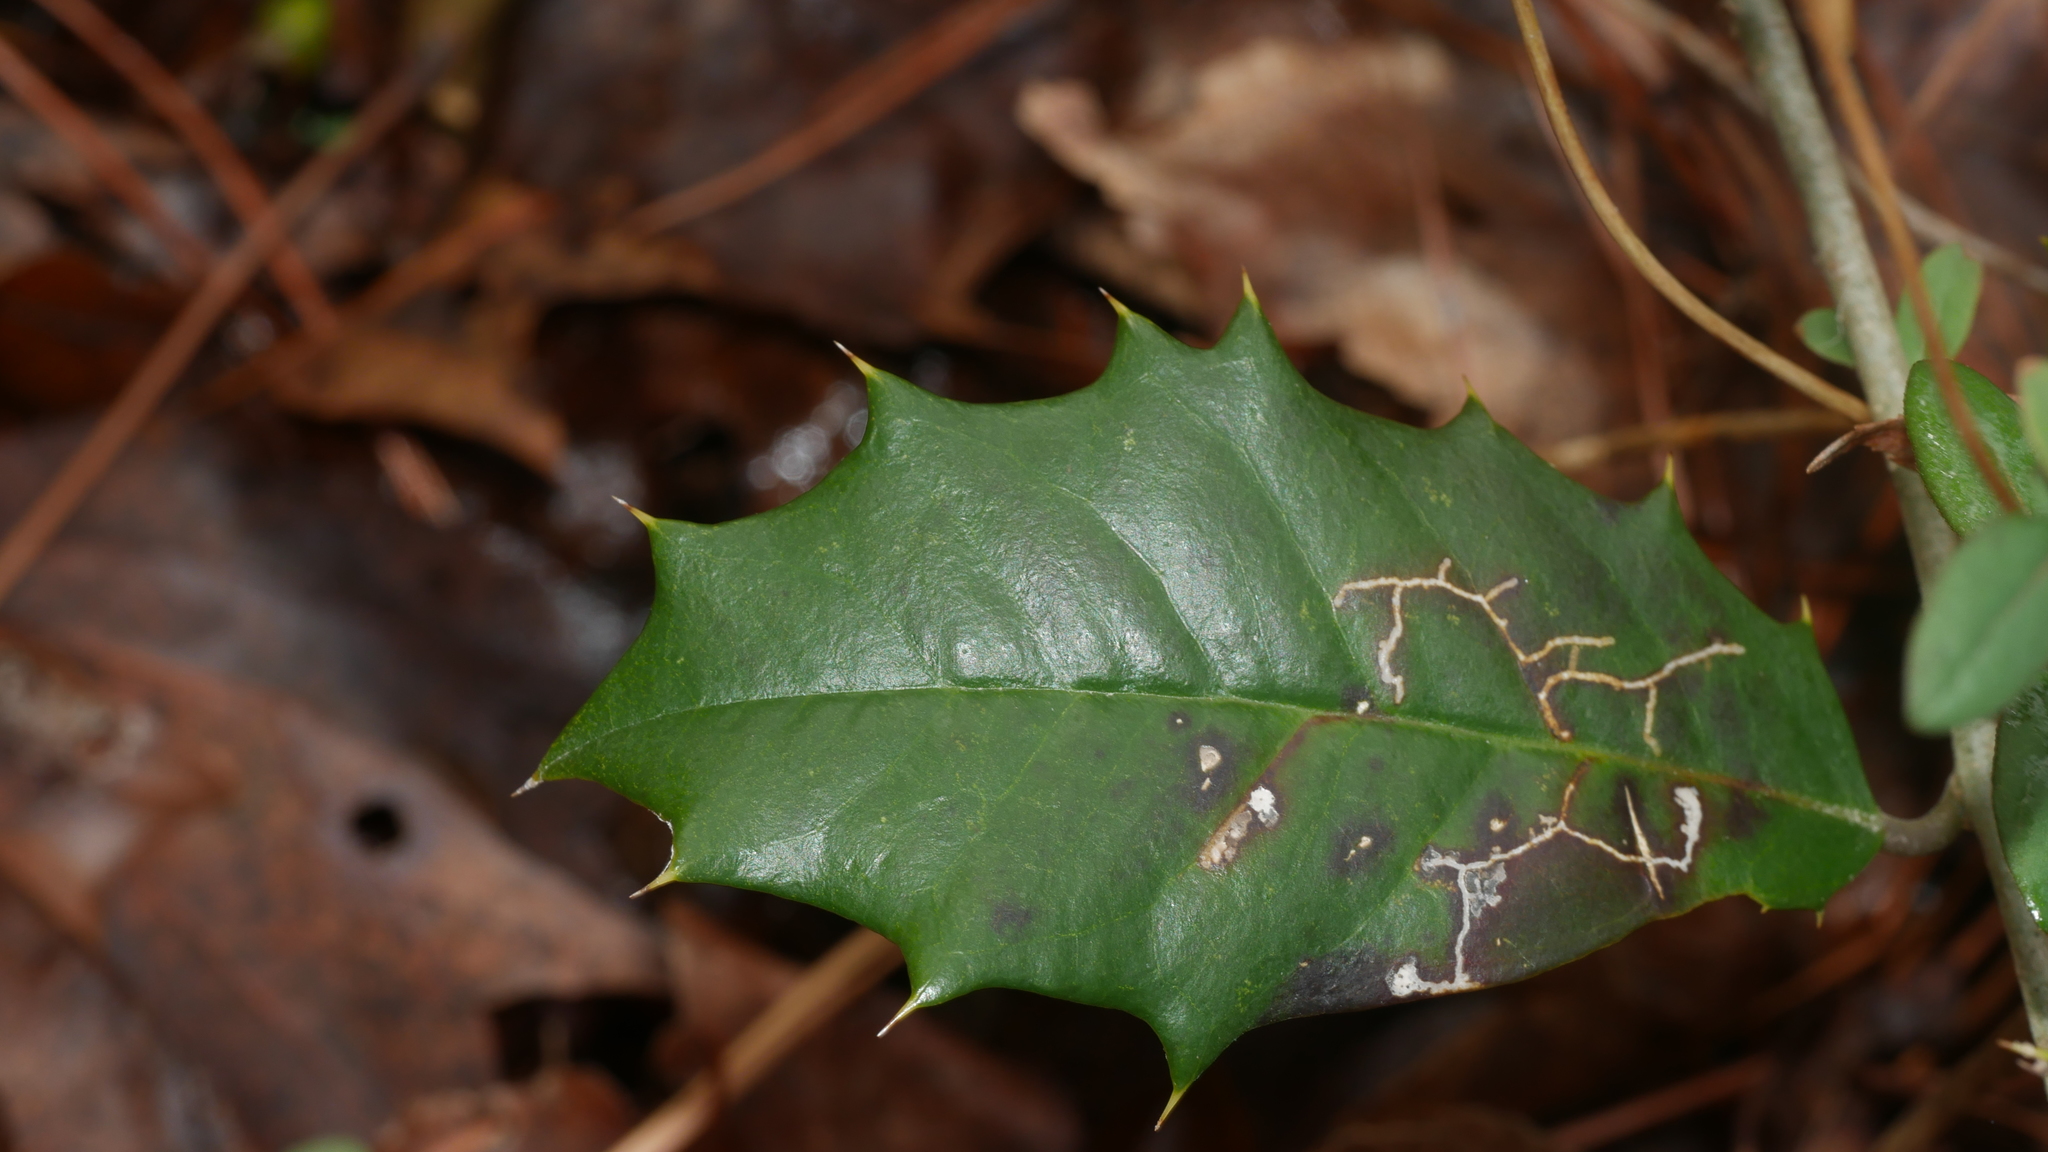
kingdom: Animalia
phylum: Arthropoda
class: Insecta
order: Lepidoptera
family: Tortricidae
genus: Rhopobota
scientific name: Rhopobota
